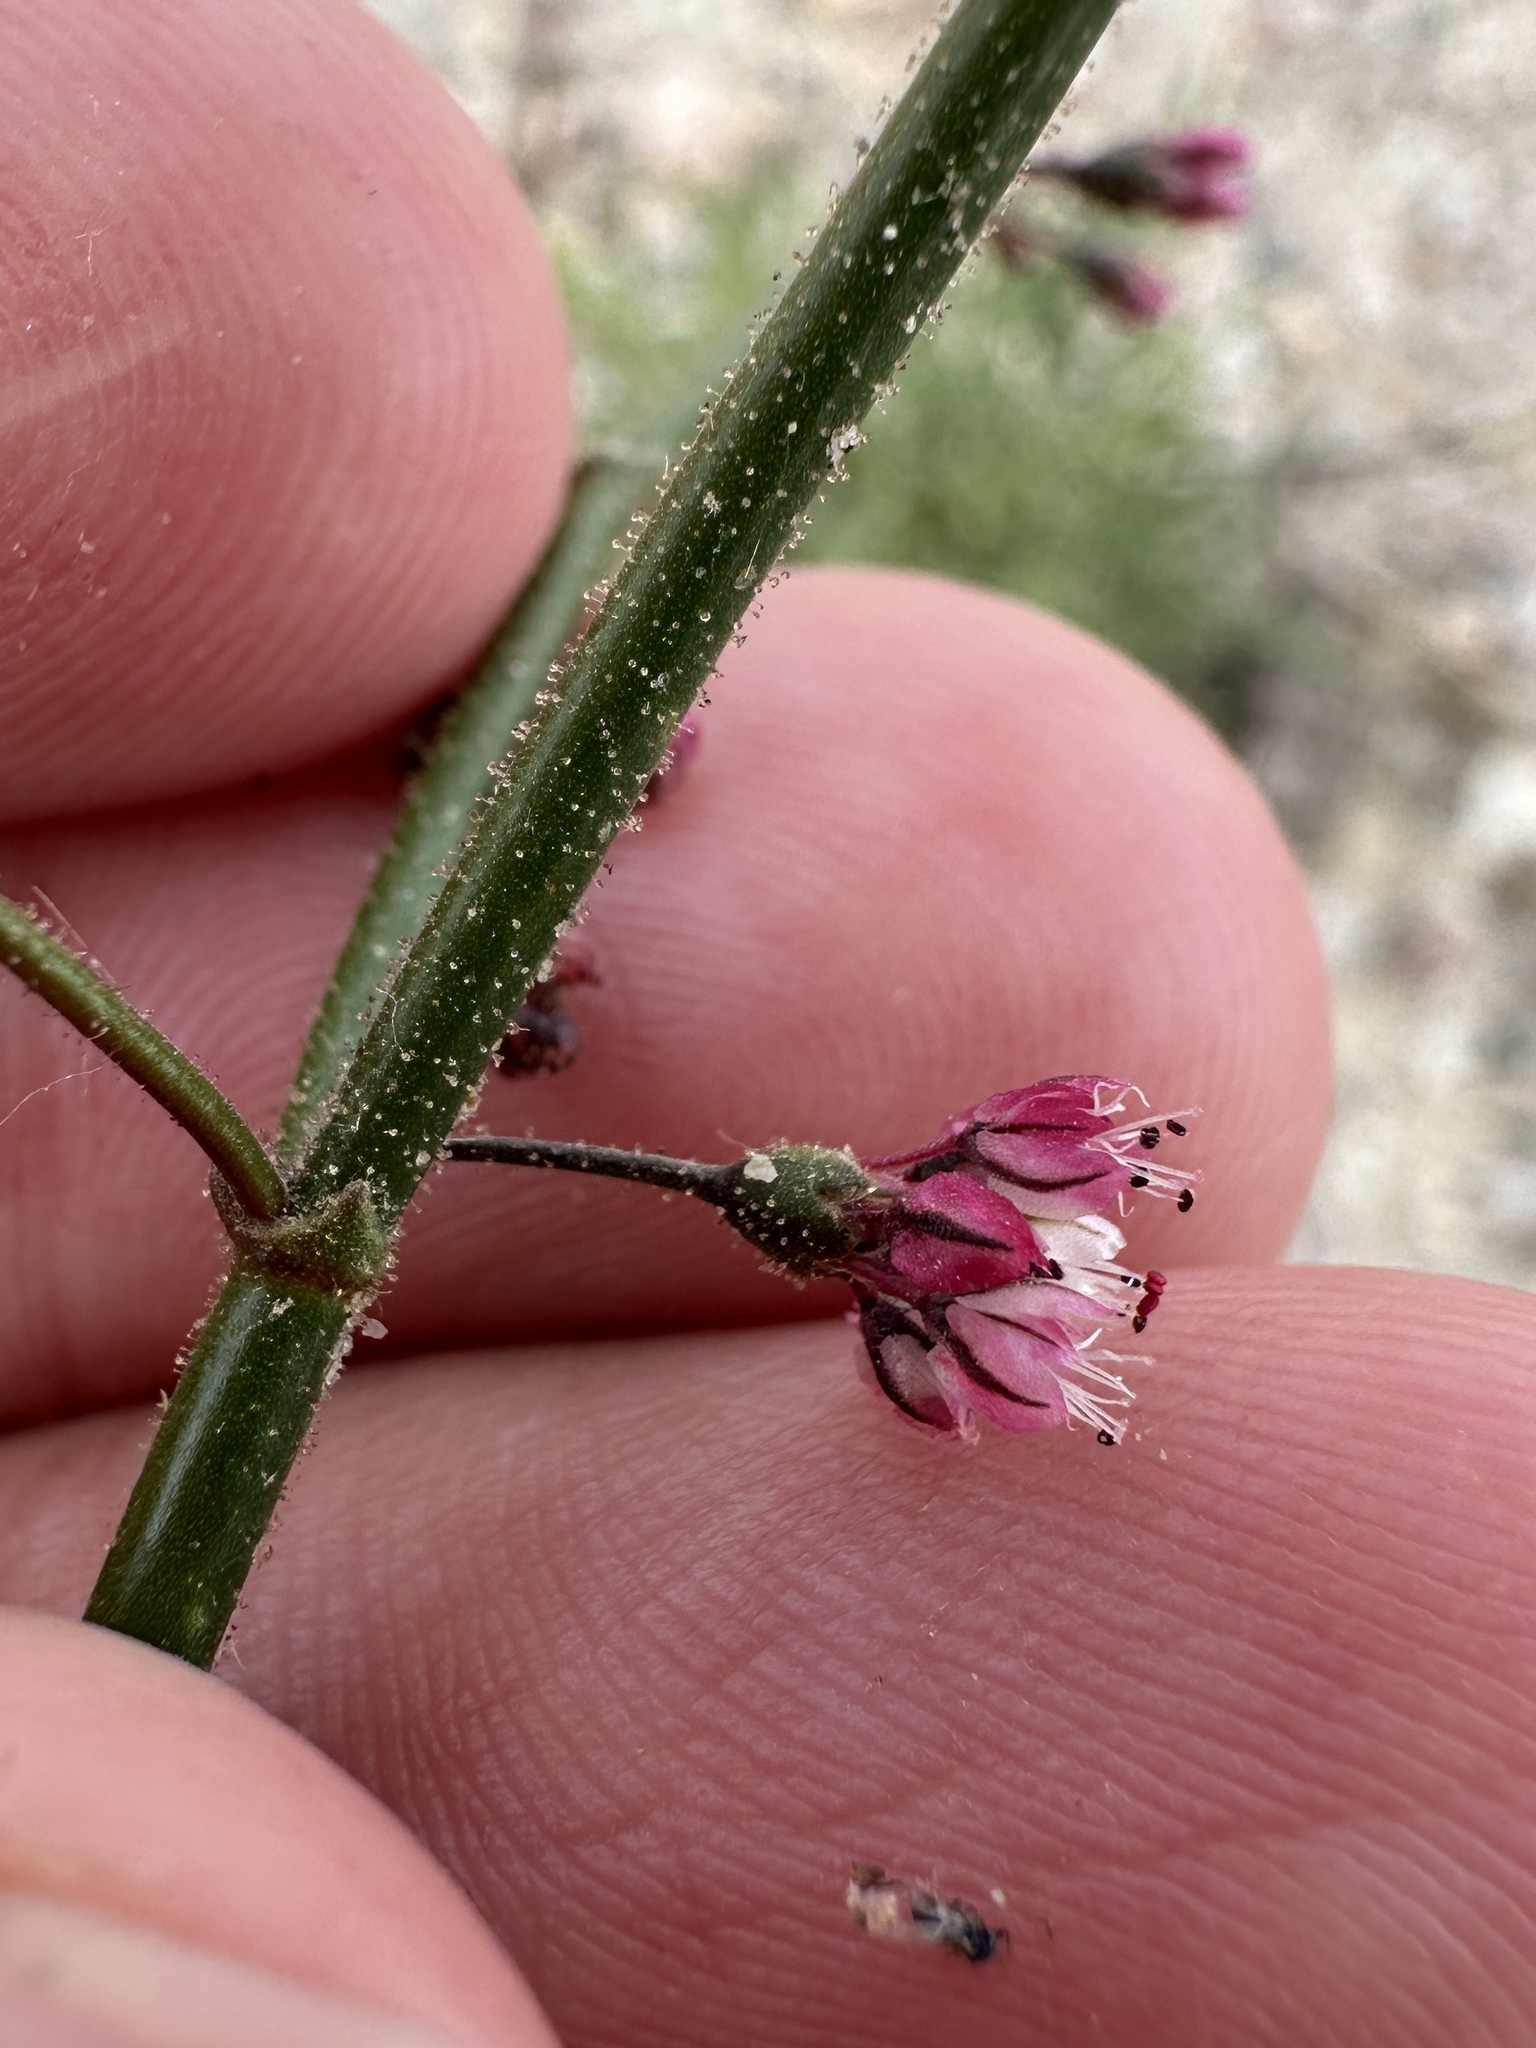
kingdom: Plantae
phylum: Tracheophyta
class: Magnoliopsida
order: Caryophyllales
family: Polygonaceae
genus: Eriogonum
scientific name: Eriogonum brachypodum
